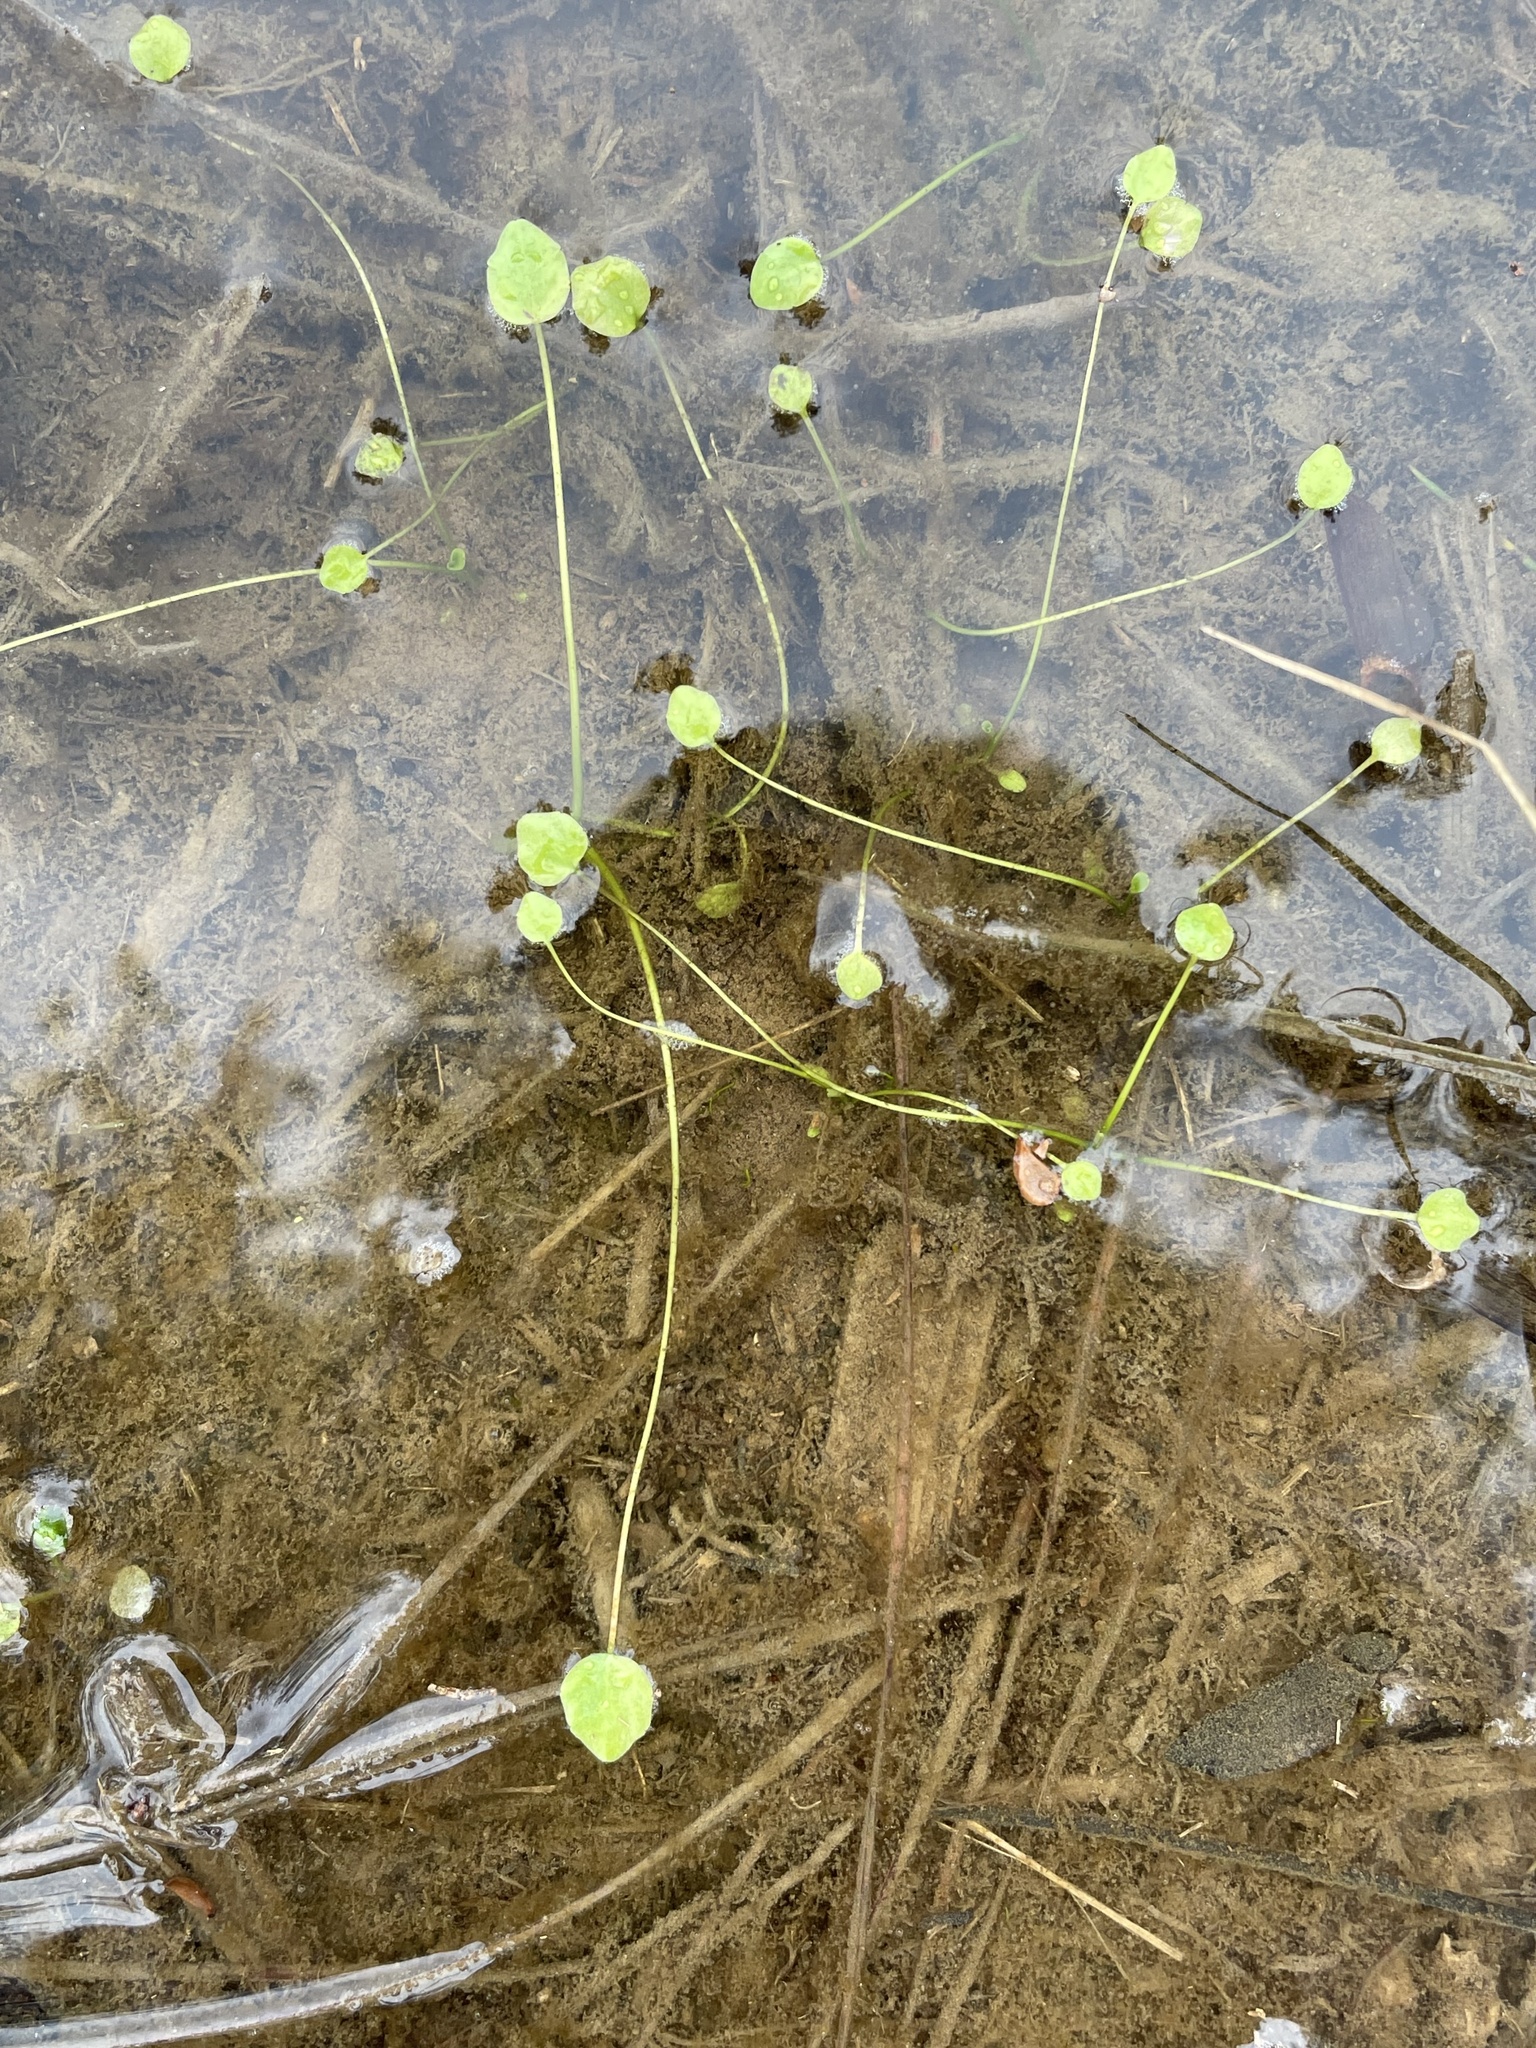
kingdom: Plantae
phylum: Tracheophyta
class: Magnoliopsida
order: Ranunculales
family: Ranunculaceae
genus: Ranunculus
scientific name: Ranunculus pusillus
